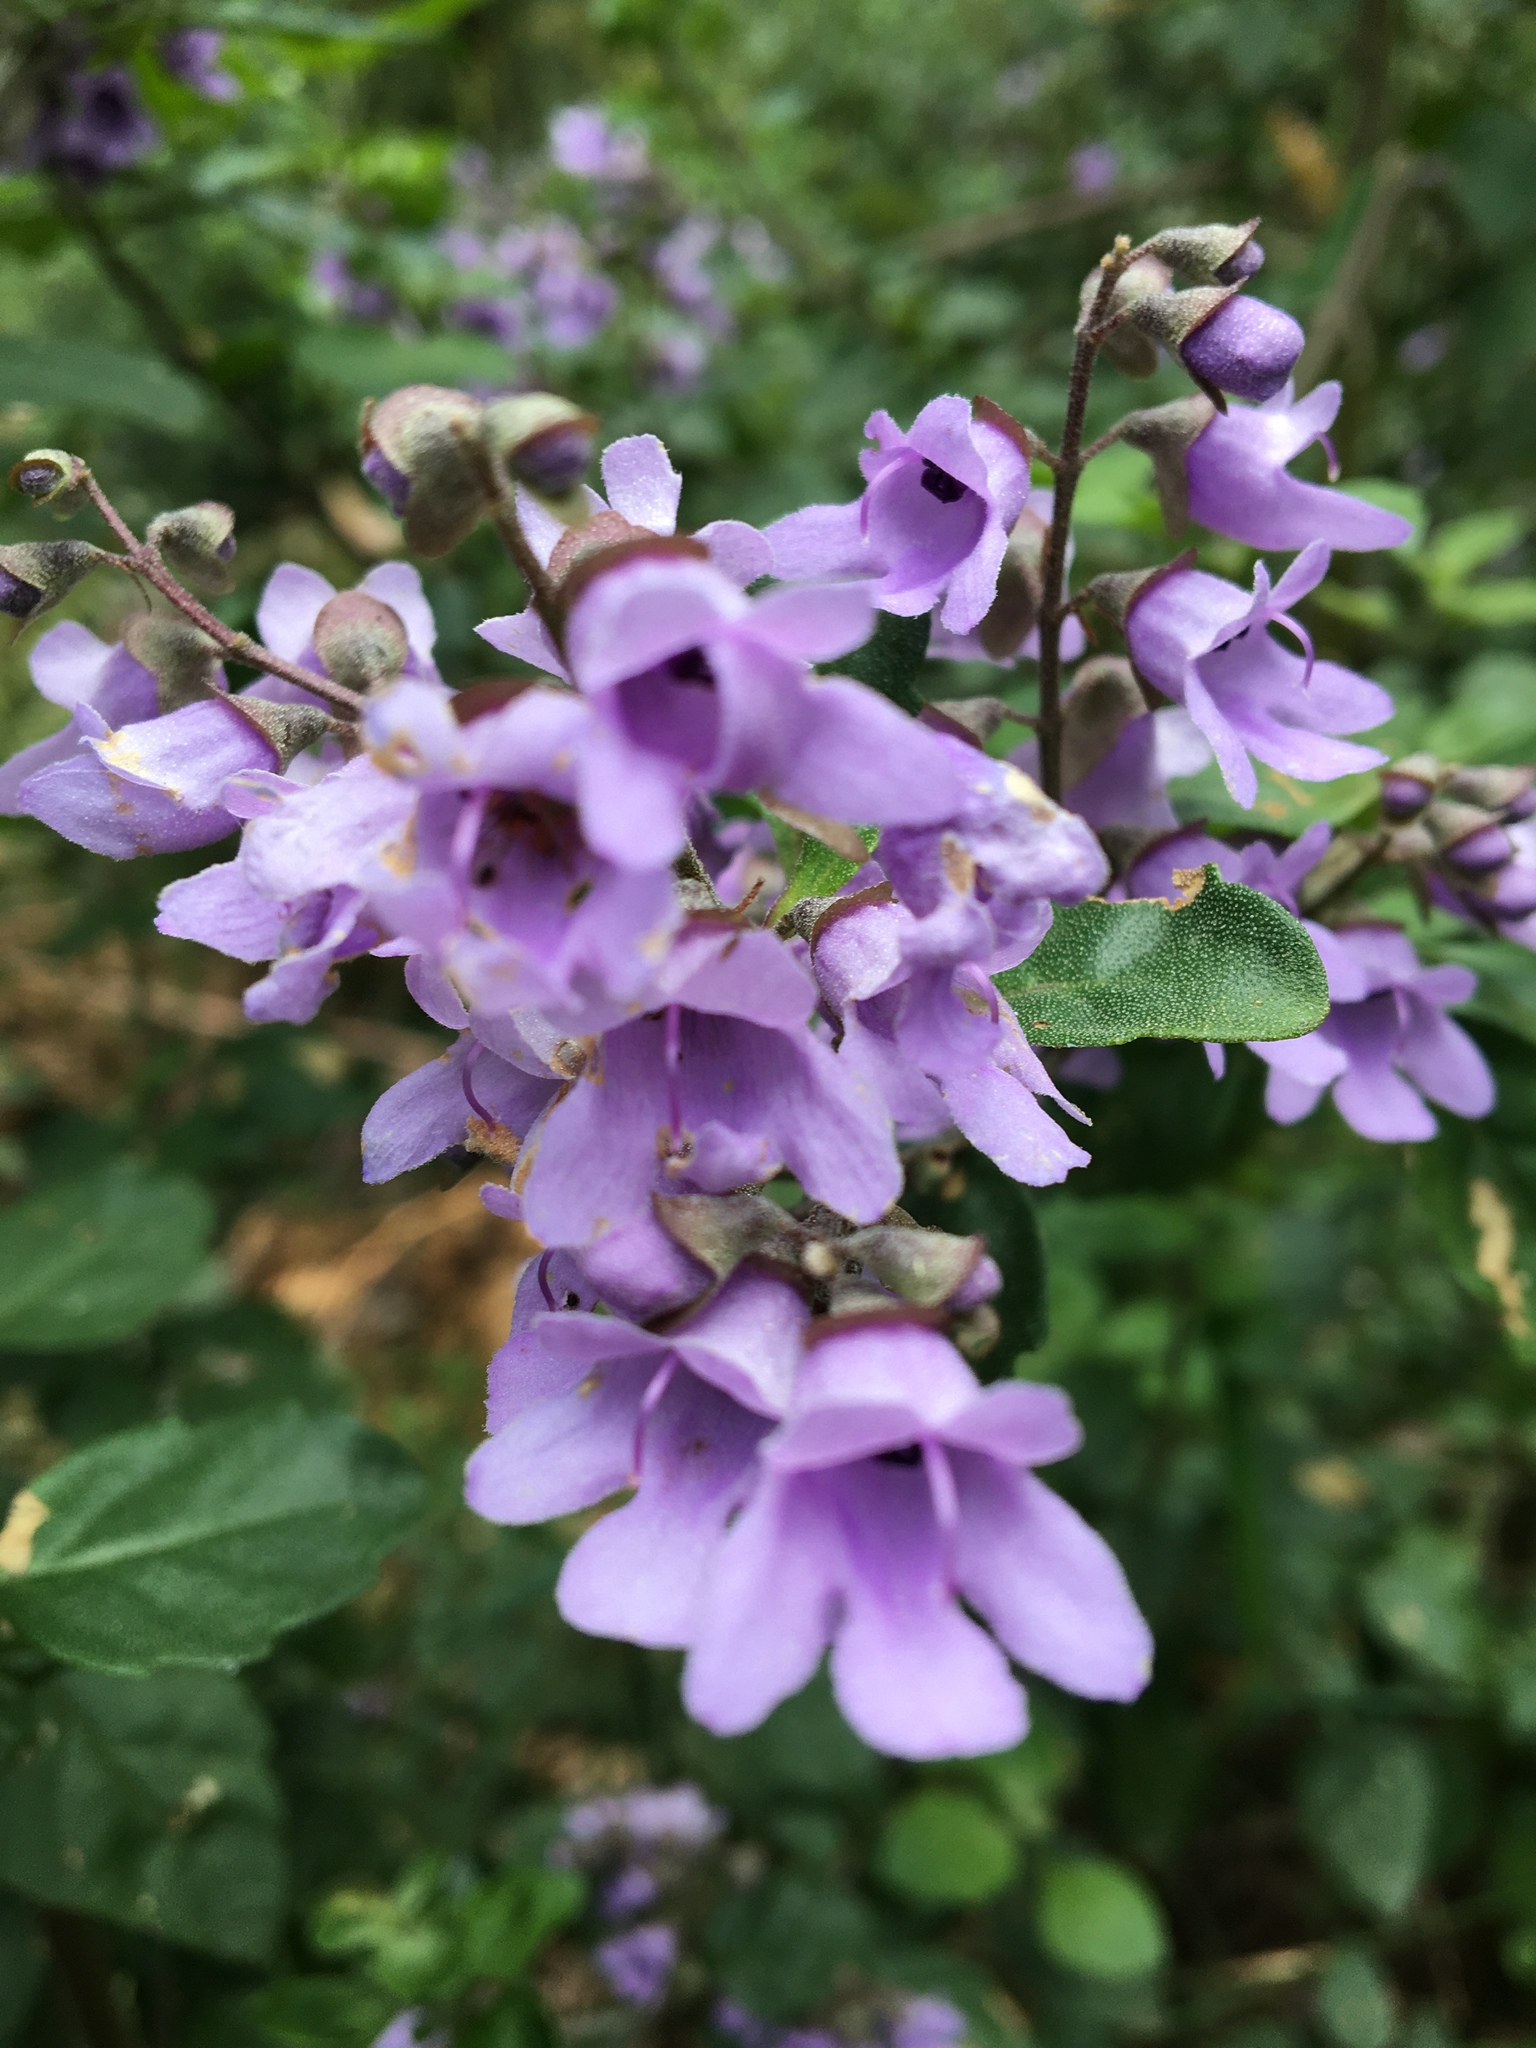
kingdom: Plantae
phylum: Tracheophyta
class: Magnoliopsida
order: Lamiales
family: Lamiaceae
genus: Prostanthera
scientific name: Prostanthera melissifolia
